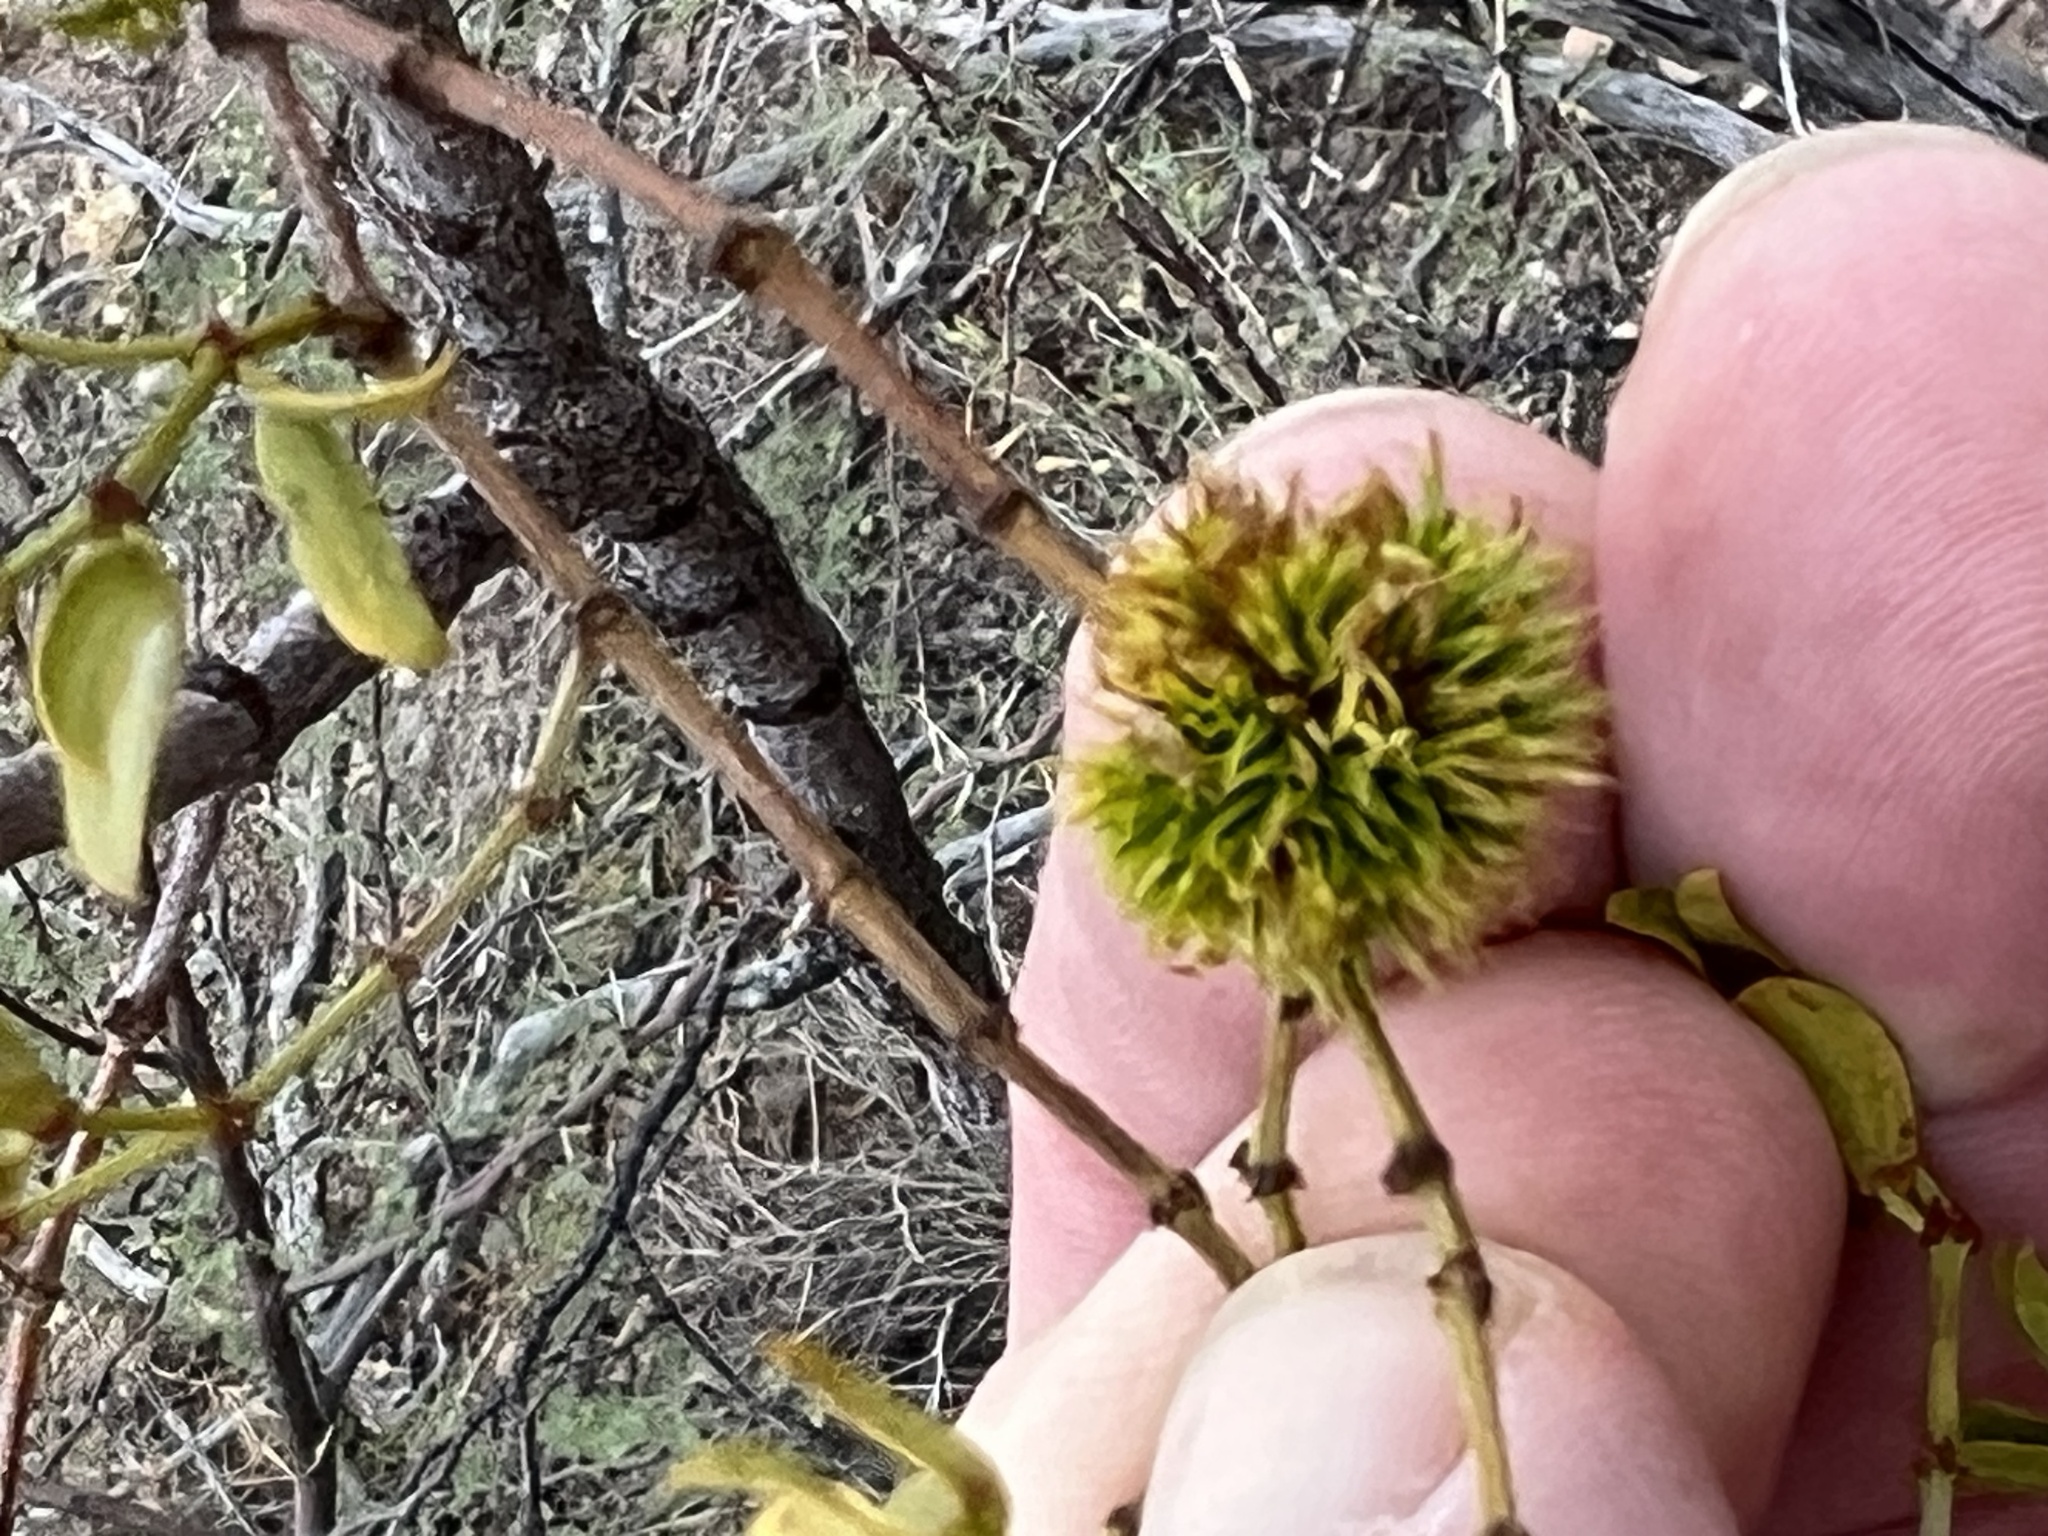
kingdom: Animalia
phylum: Arthropoda
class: Insecta
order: Diptera
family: Cecidomyiidae
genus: Asphondylia
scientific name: Asphondylia auripila
